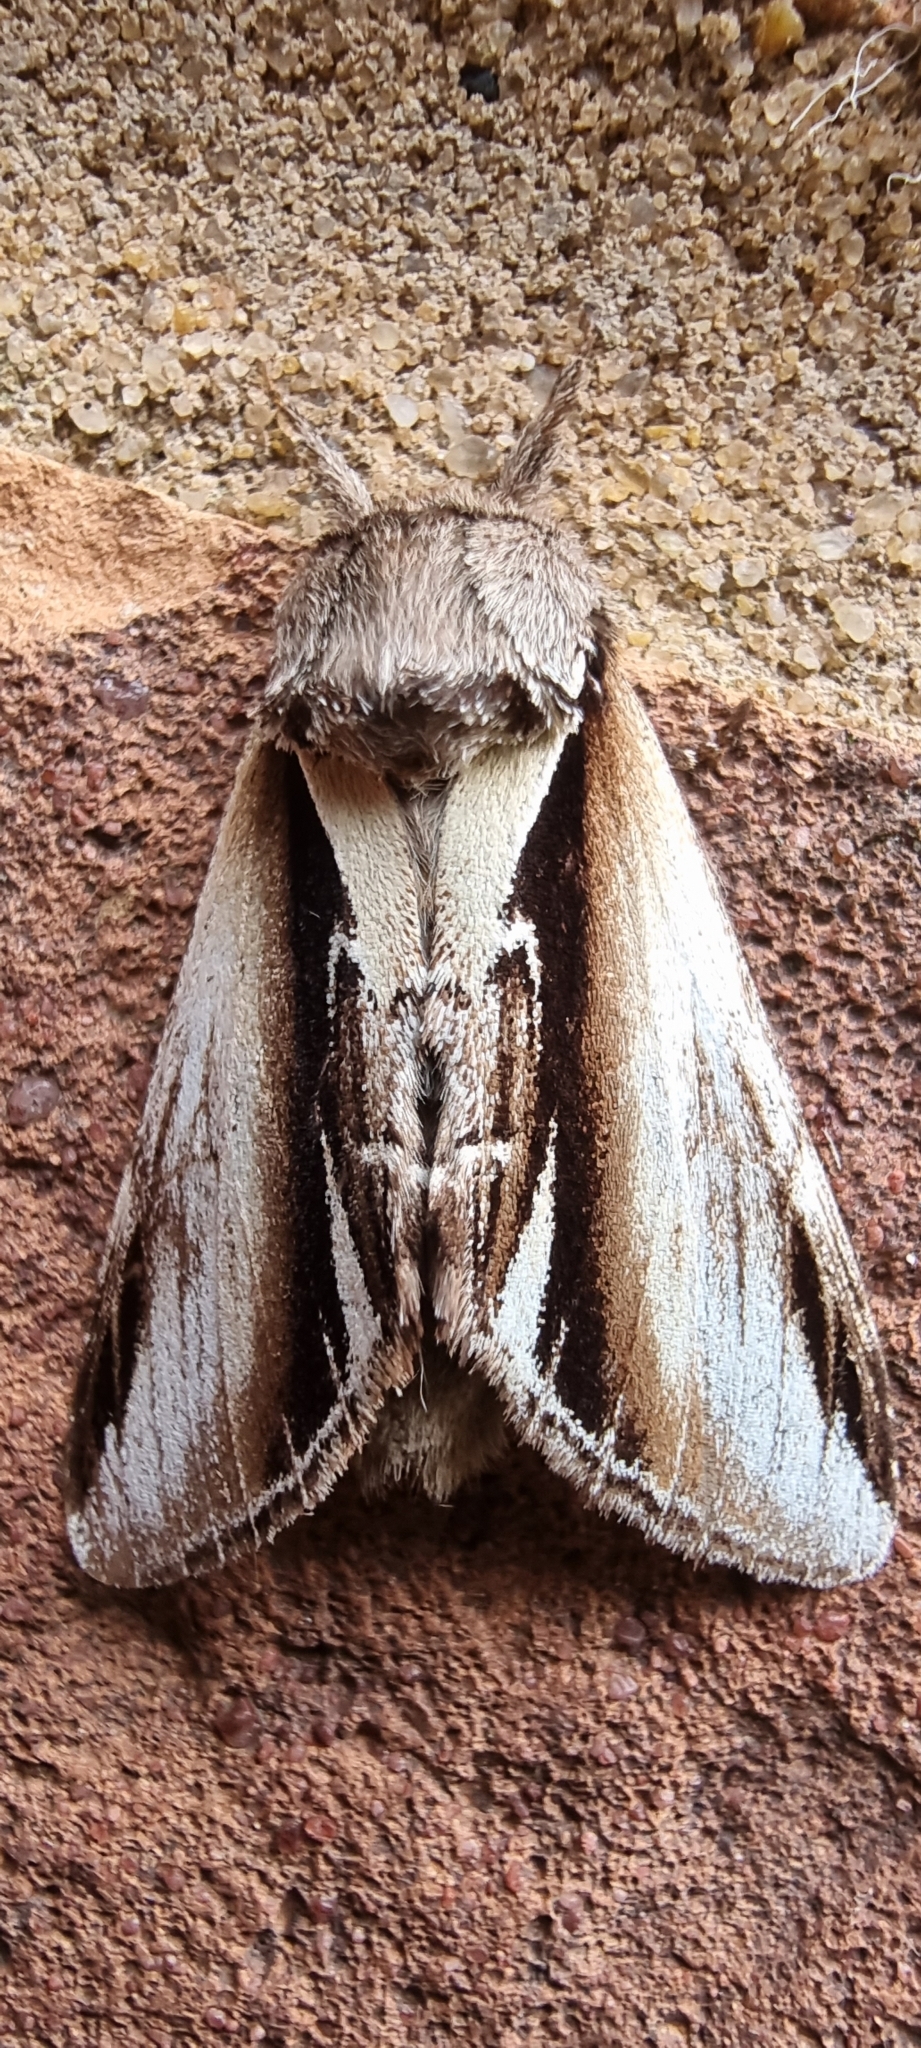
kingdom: Animalia
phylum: Arthropoda
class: Insecta
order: Lepidoptera
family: Notodontidae
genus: Pheosia
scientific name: Pheosia gnoma
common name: Lesser swallow prominent
